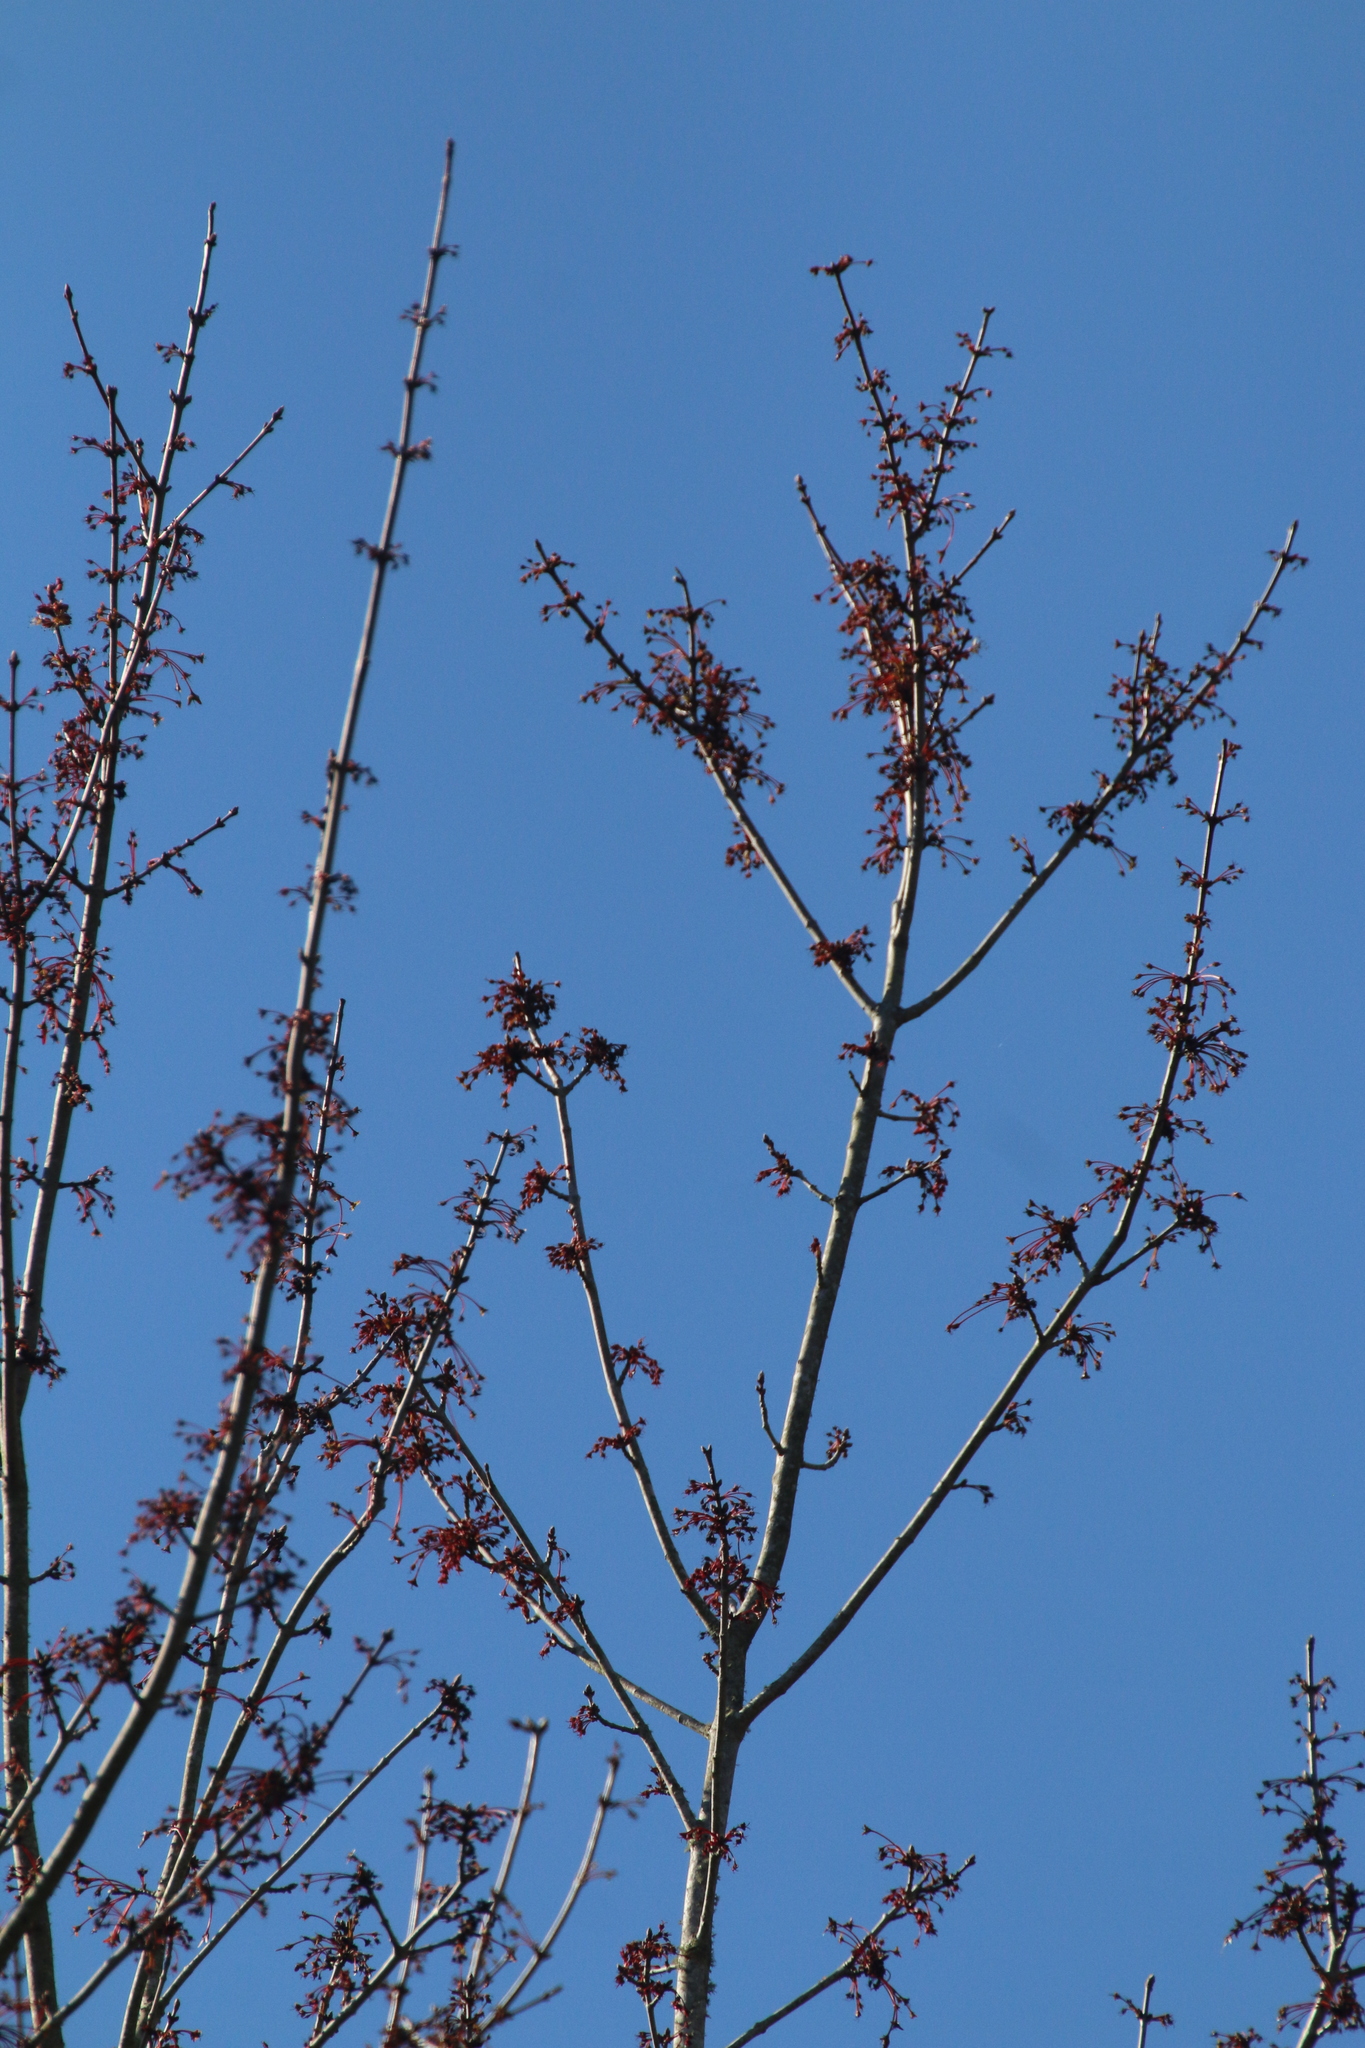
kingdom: Plantae
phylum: Tracheophyta
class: Magnoliopsida
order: Sapindales
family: Sapindaceae
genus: Acer
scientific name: Acer rubrum
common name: Red maple
